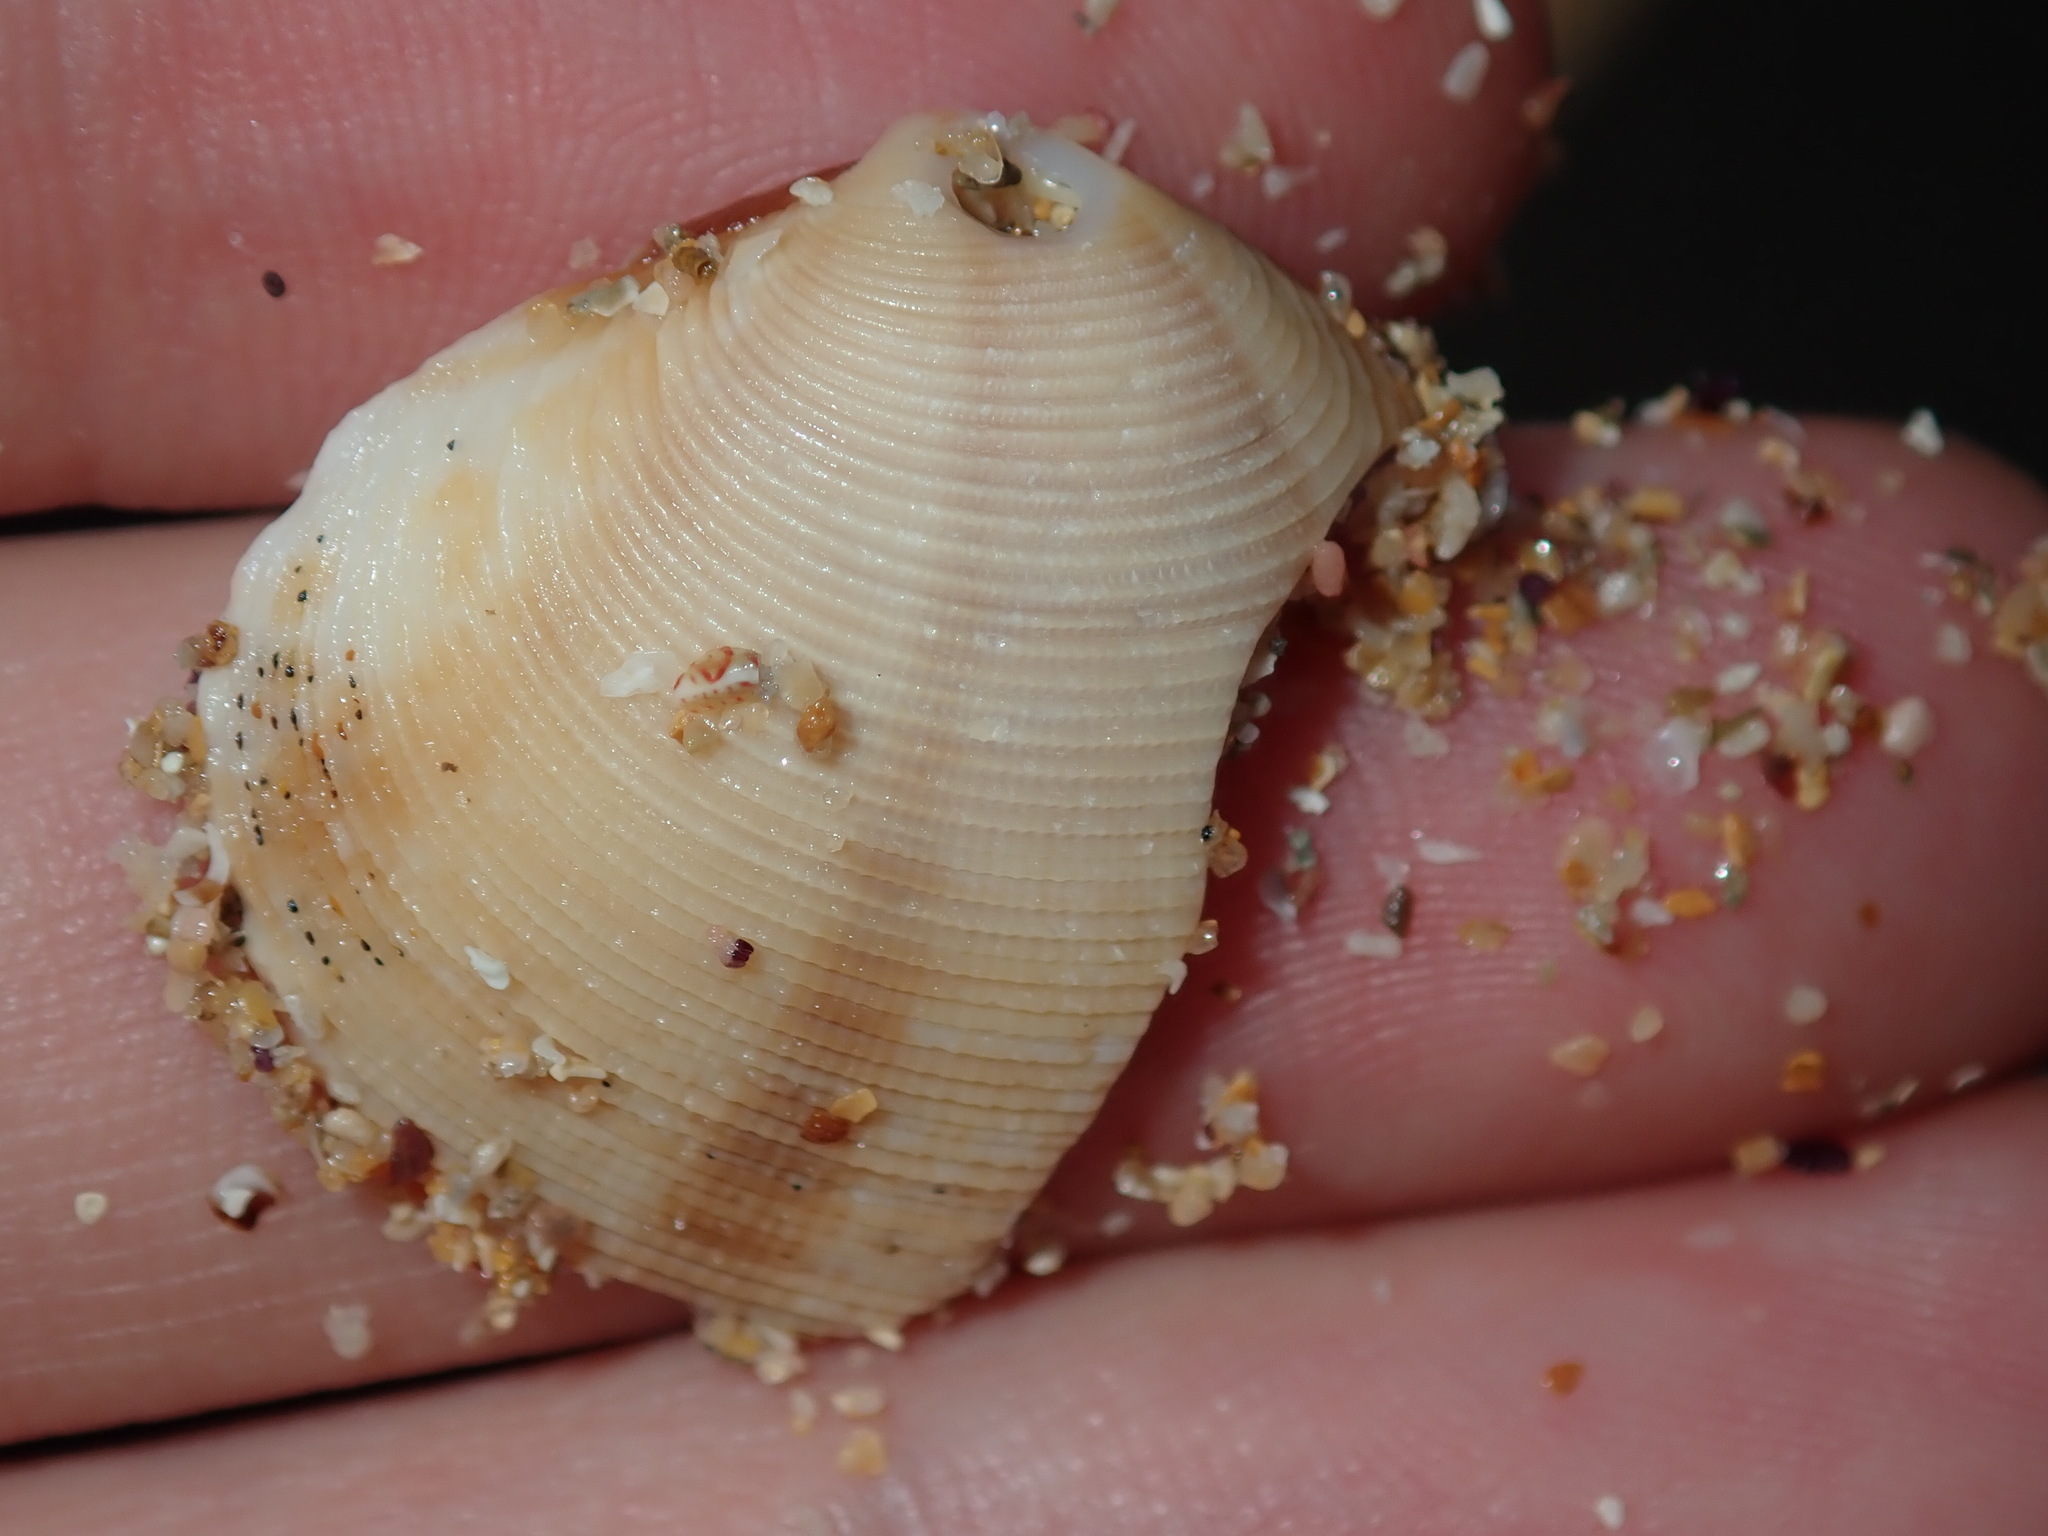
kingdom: Animalia
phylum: Mollusca
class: Bivalvia
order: Venerida
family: Veneridae
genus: Tawera
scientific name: Tawera lagopus
